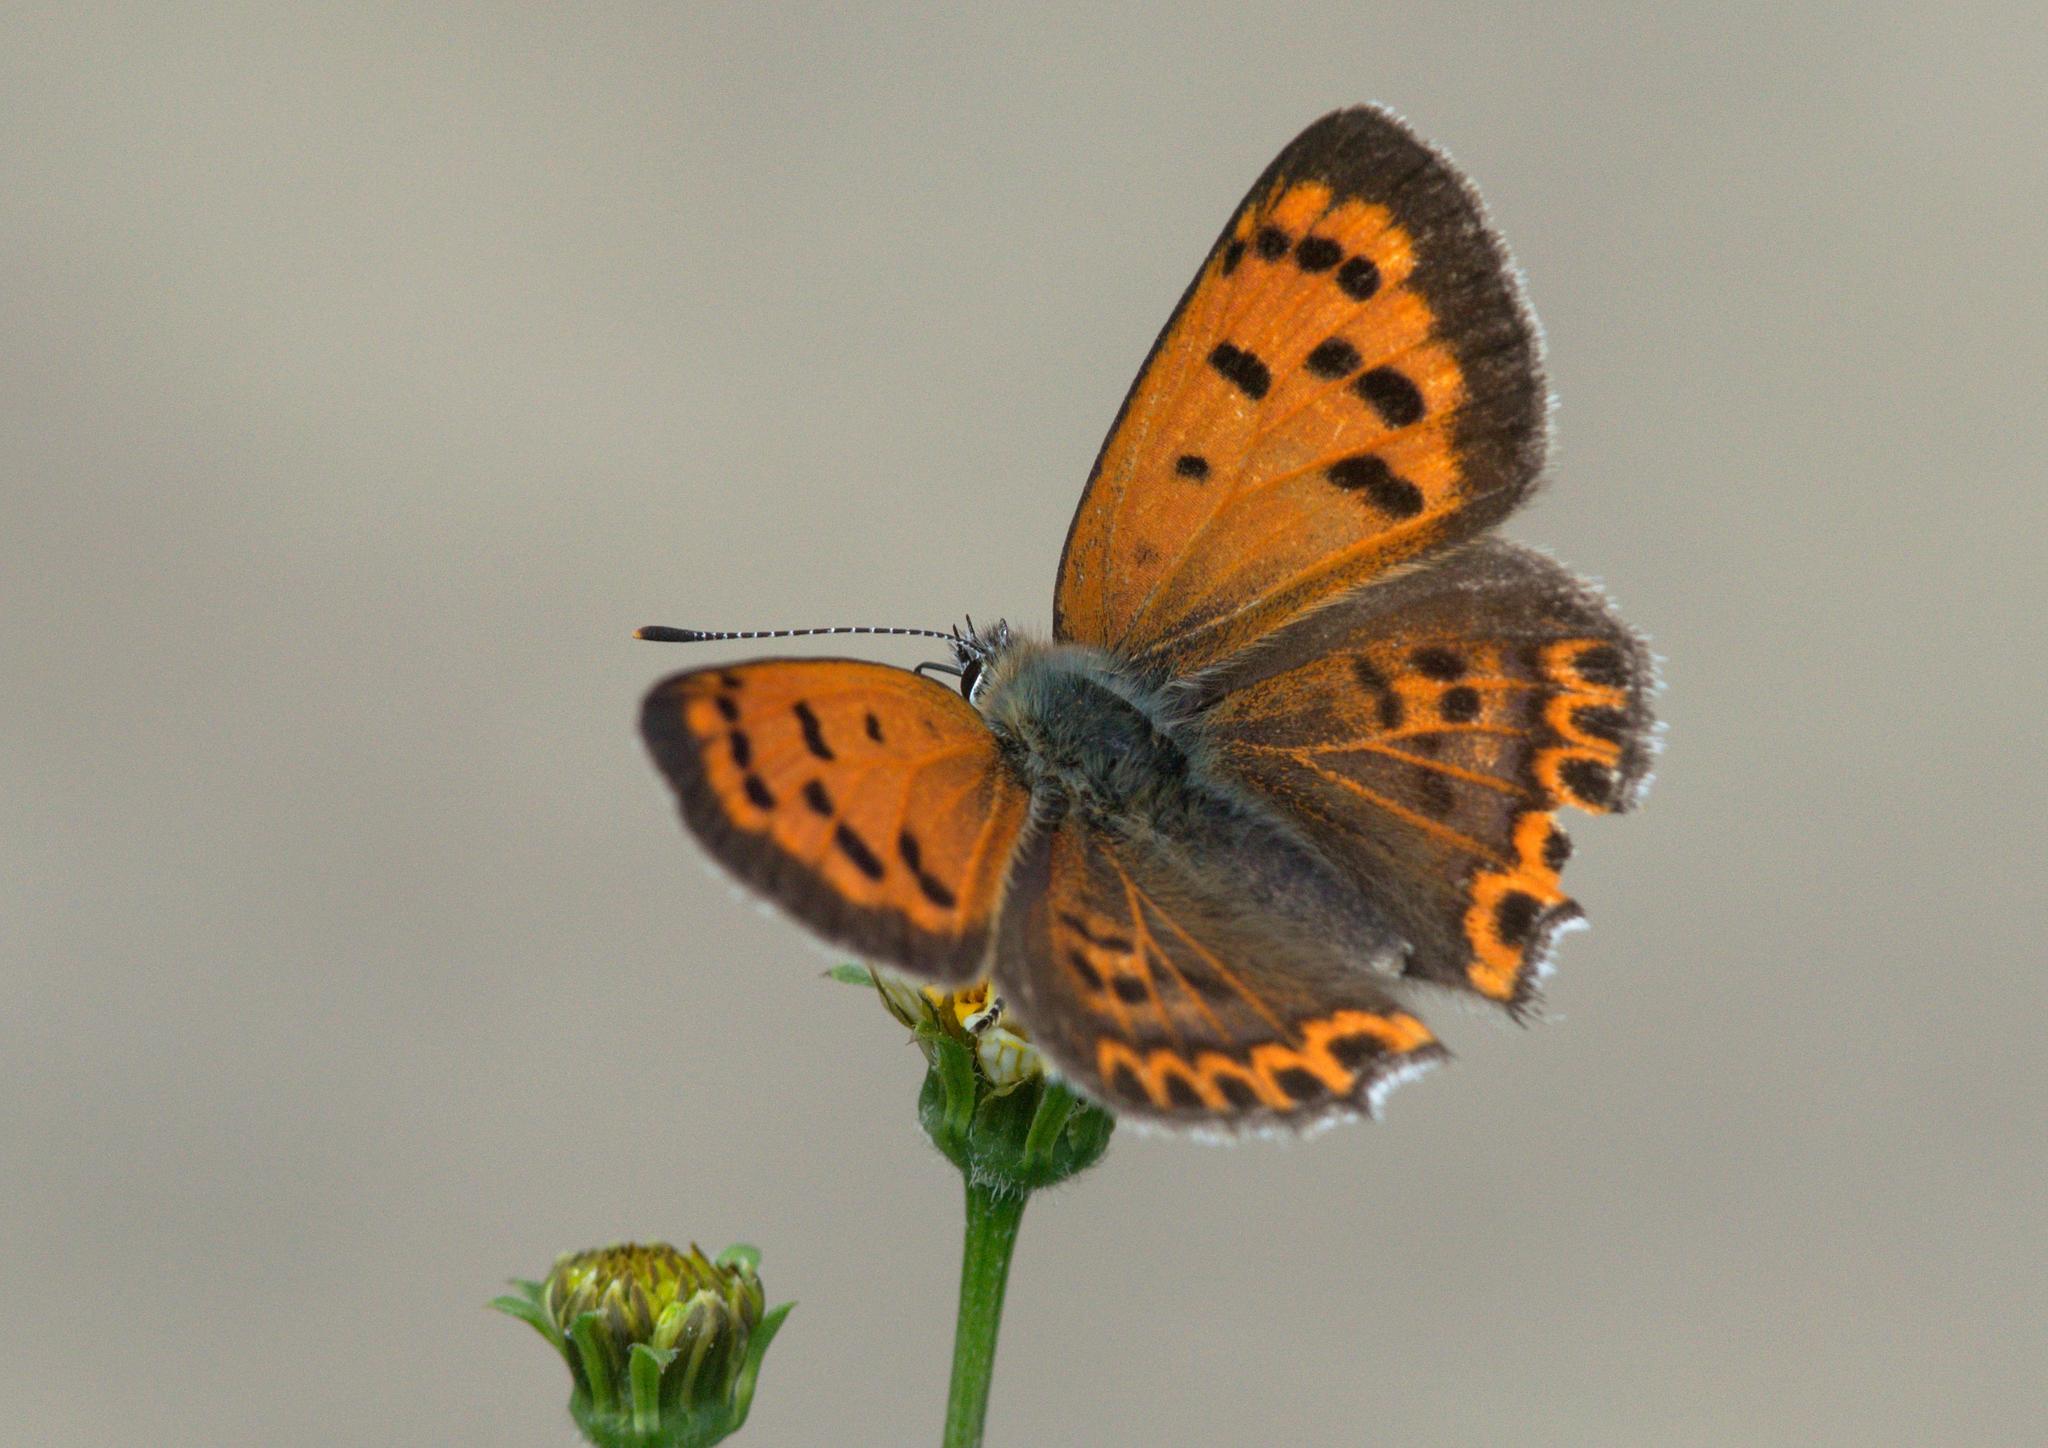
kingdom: Animalia
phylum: Arthropoda
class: Insecta
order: Lepidoptera
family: Lycaenidae
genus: Lycaena
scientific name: Lycaena panava
